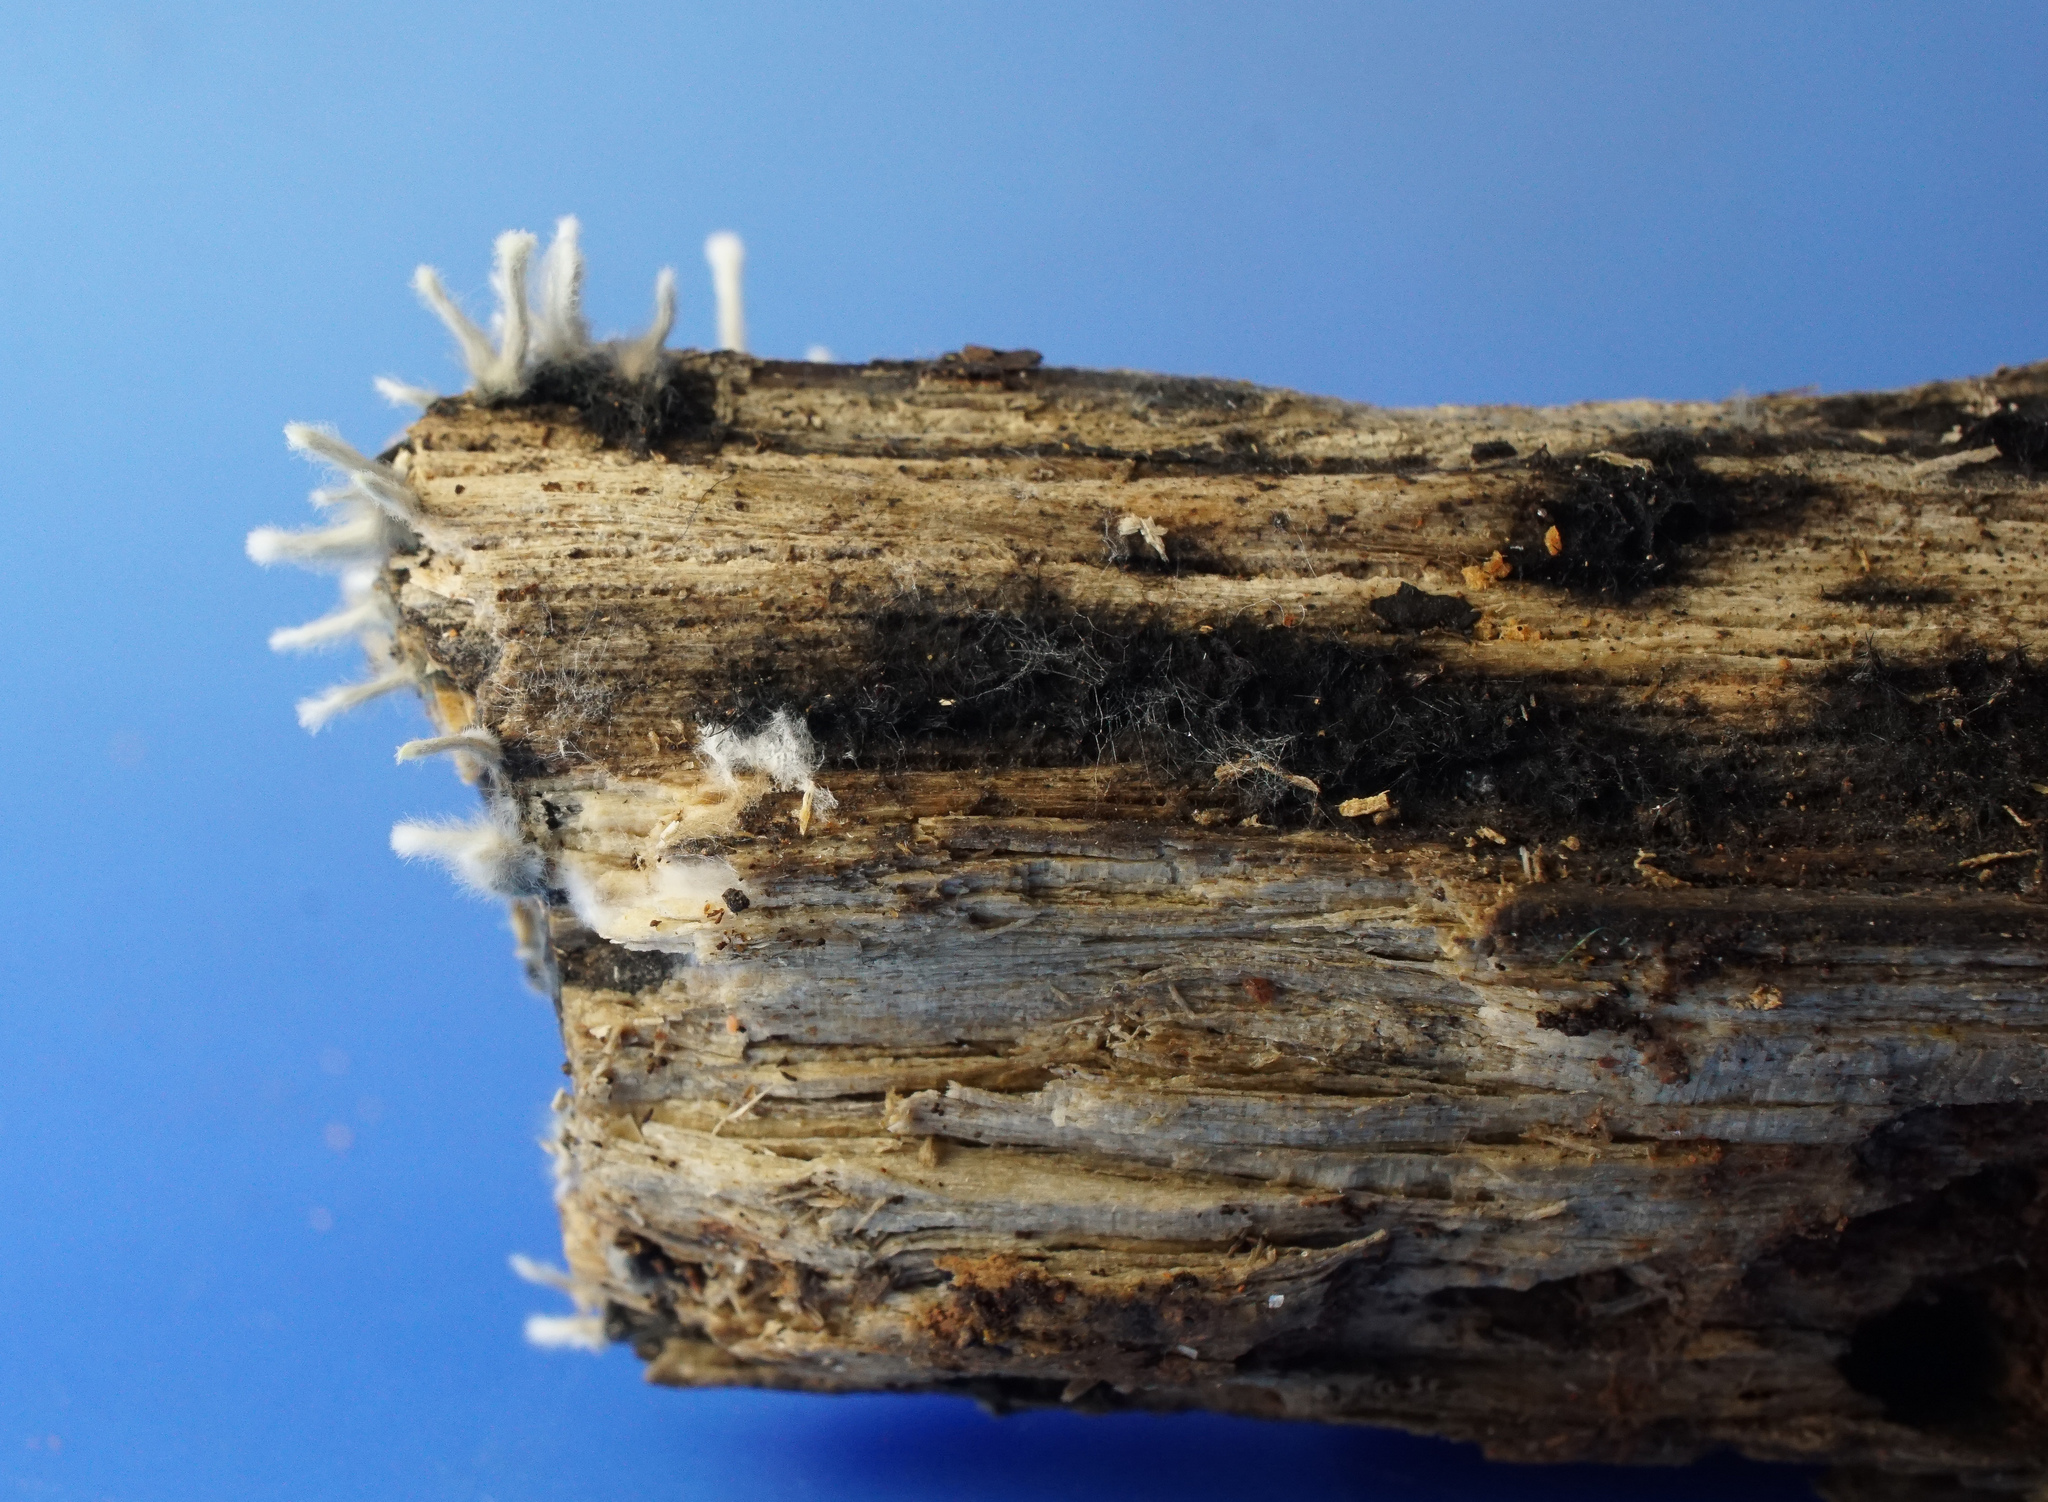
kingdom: Fungi
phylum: Ascomycota
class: Pezizomycetes
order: Pezizales
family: Sarcosomataceae
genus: Galiella
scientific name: Galiella rufa
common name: Hairy rubber cup
